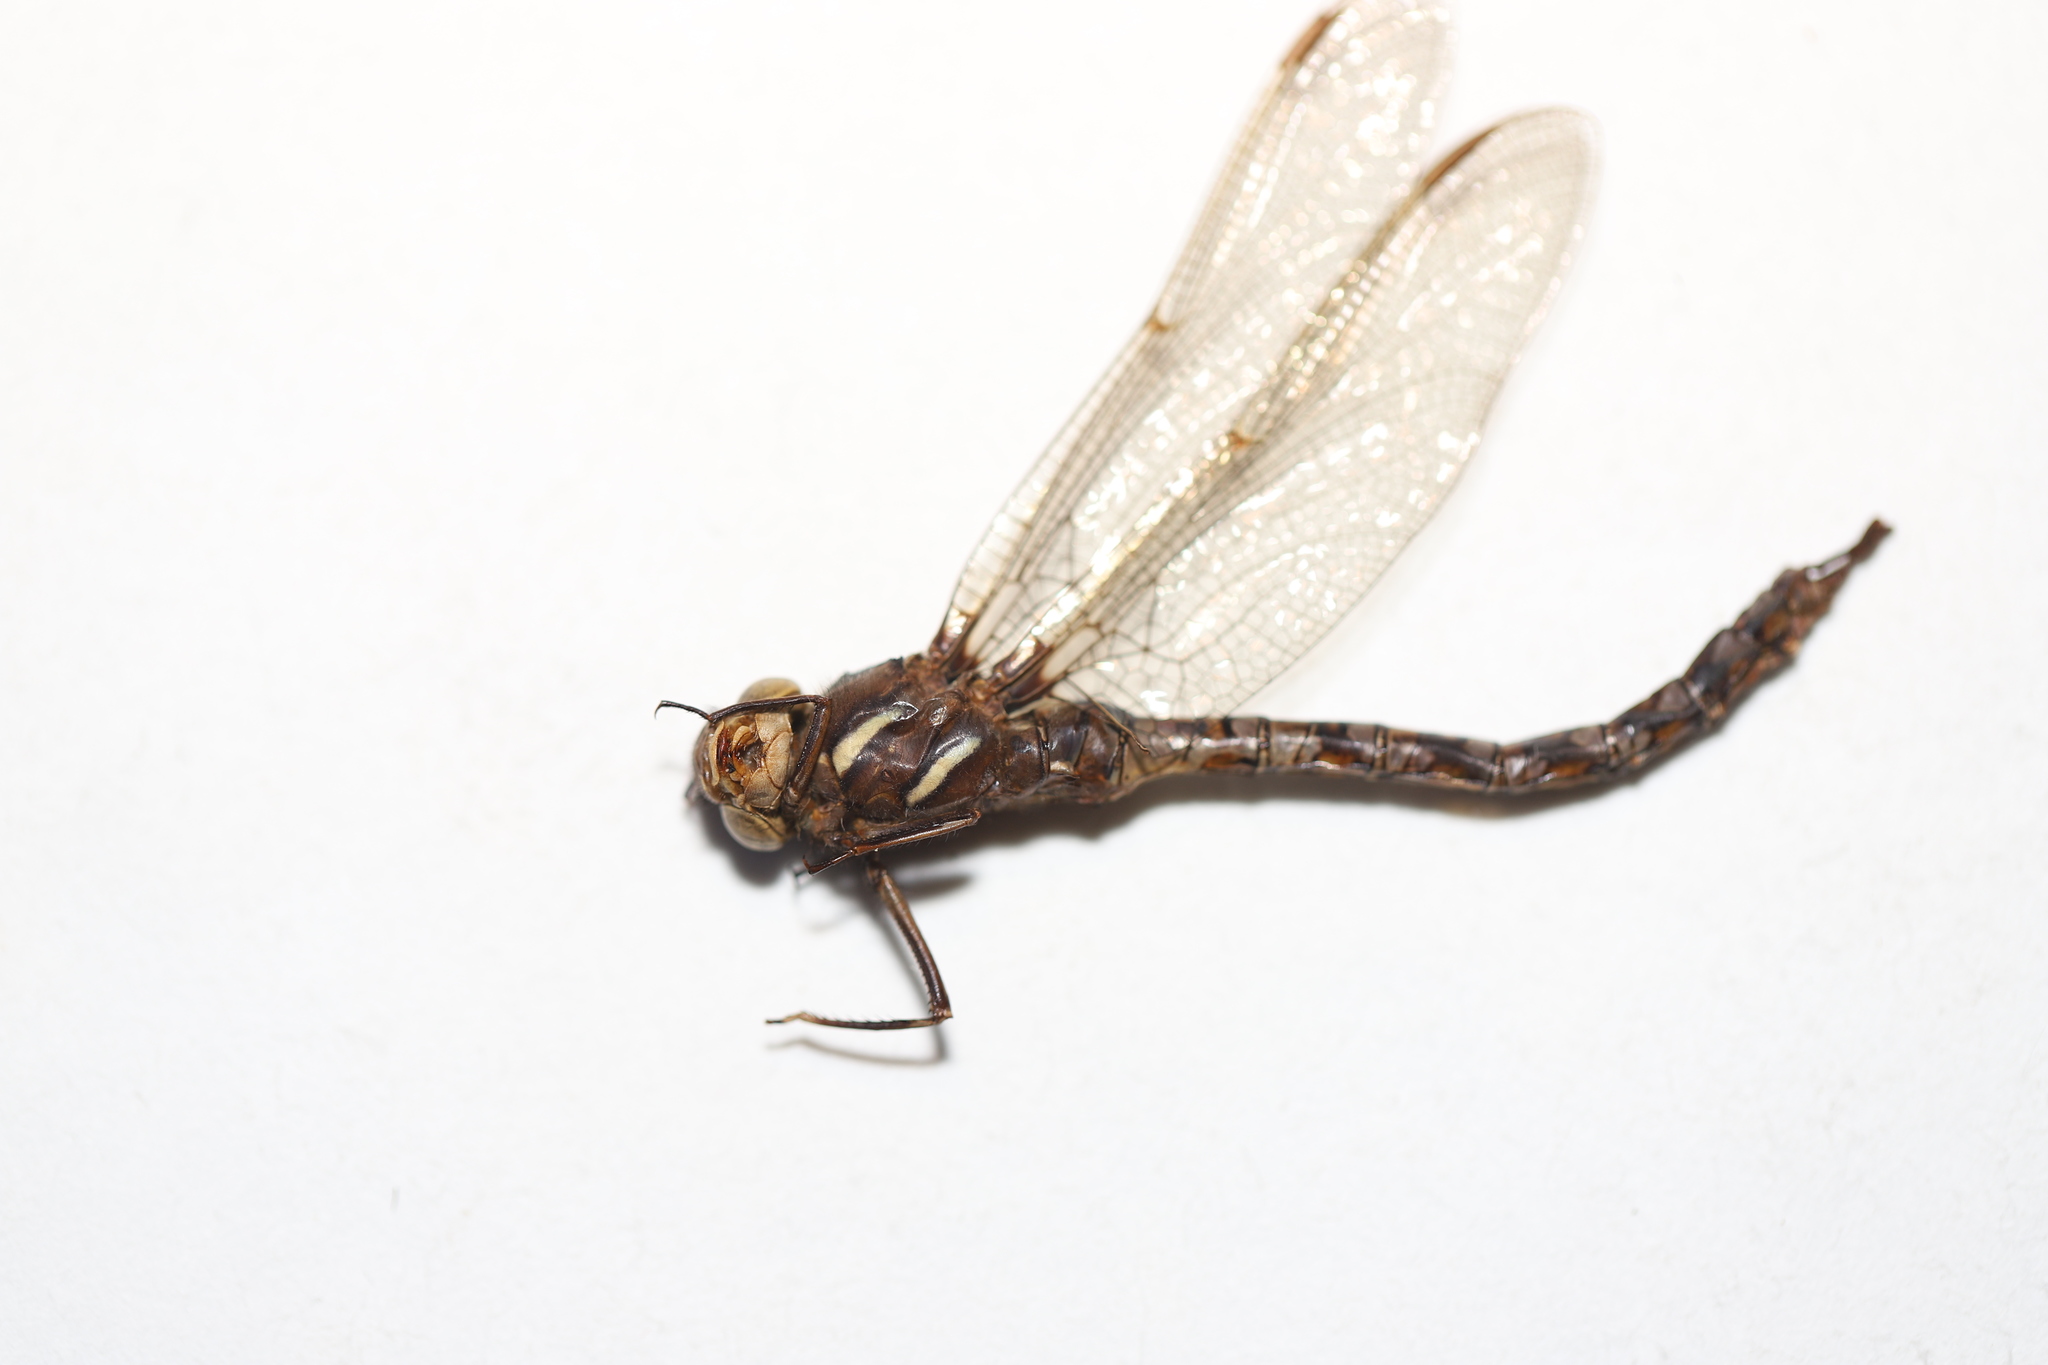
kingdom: Animalia
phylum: Arthropoda
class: Insecta
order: Odonata
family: Aeshnidae
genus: Basiaeschna
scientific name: Basiaeschna janata
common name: Springtime darner
